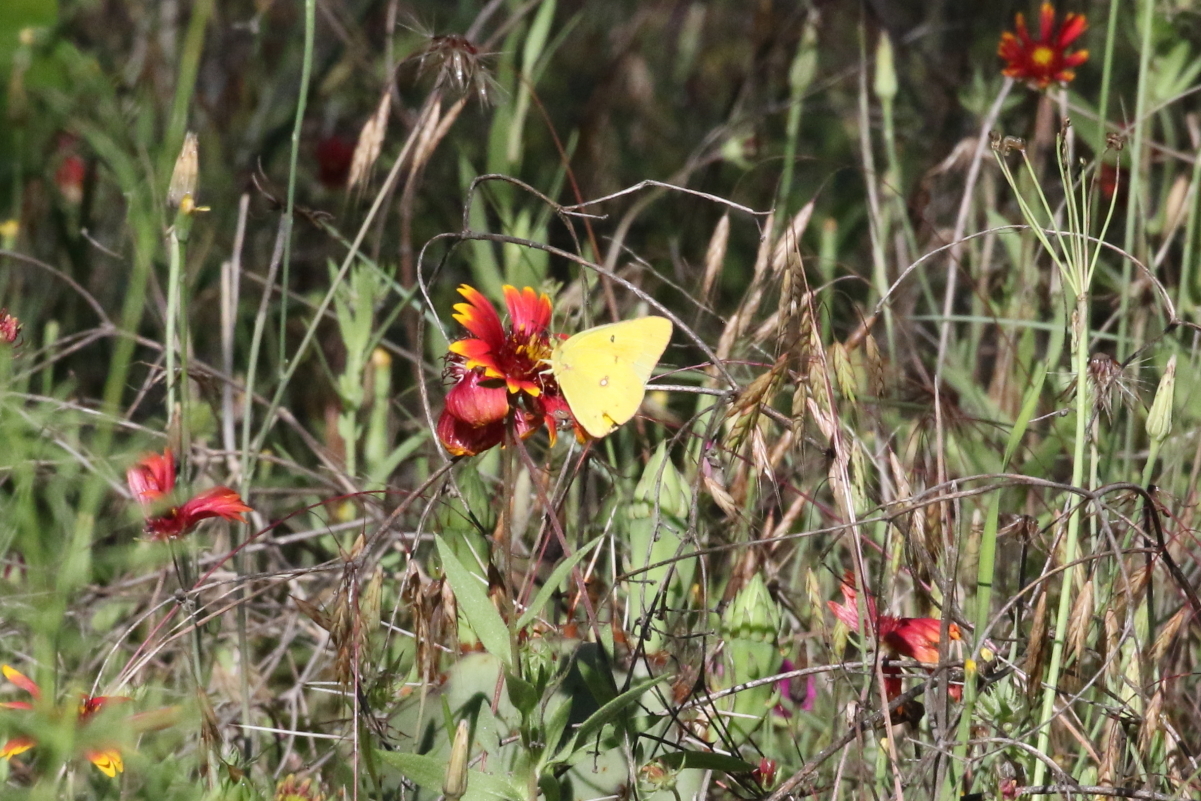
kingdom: Animalia
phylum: Arthropoda
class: Insecta
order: Lepidoptera
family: Pieridae
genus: Colias
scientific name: Colias eurytheme
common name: Alfalfa butterfly
